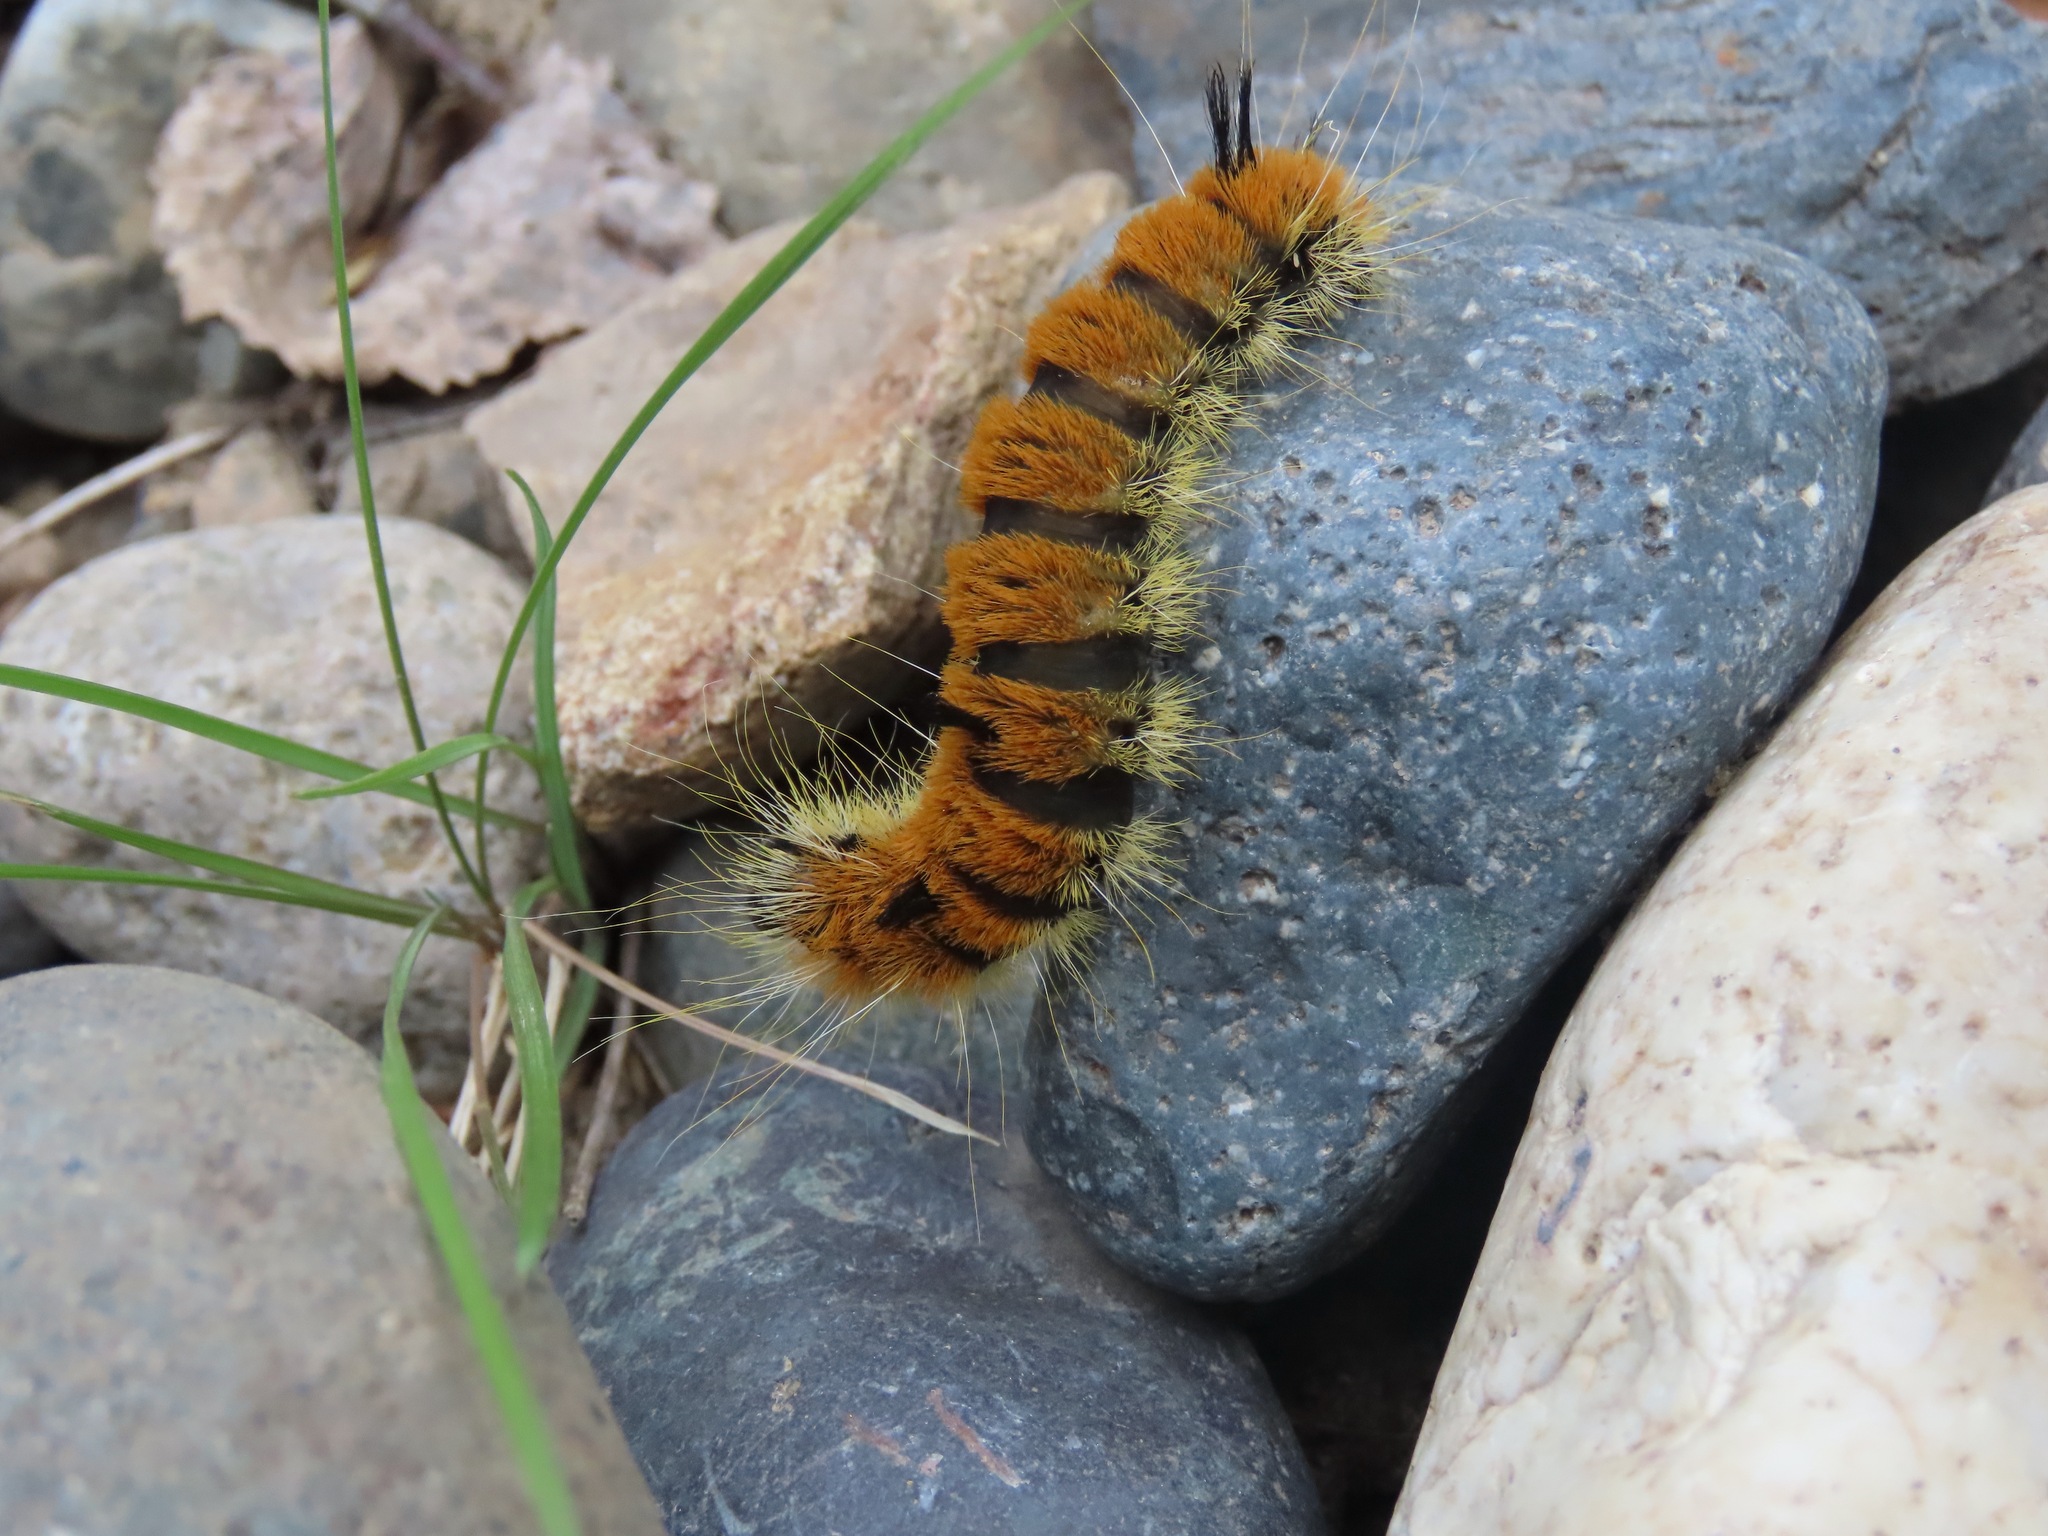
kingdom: Animalia
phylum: Arthropoda
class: Insecta
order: Lepidoptera
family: Noctuidae
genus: Acronicta
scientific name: Acronicta insita
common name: Large gray dagger
